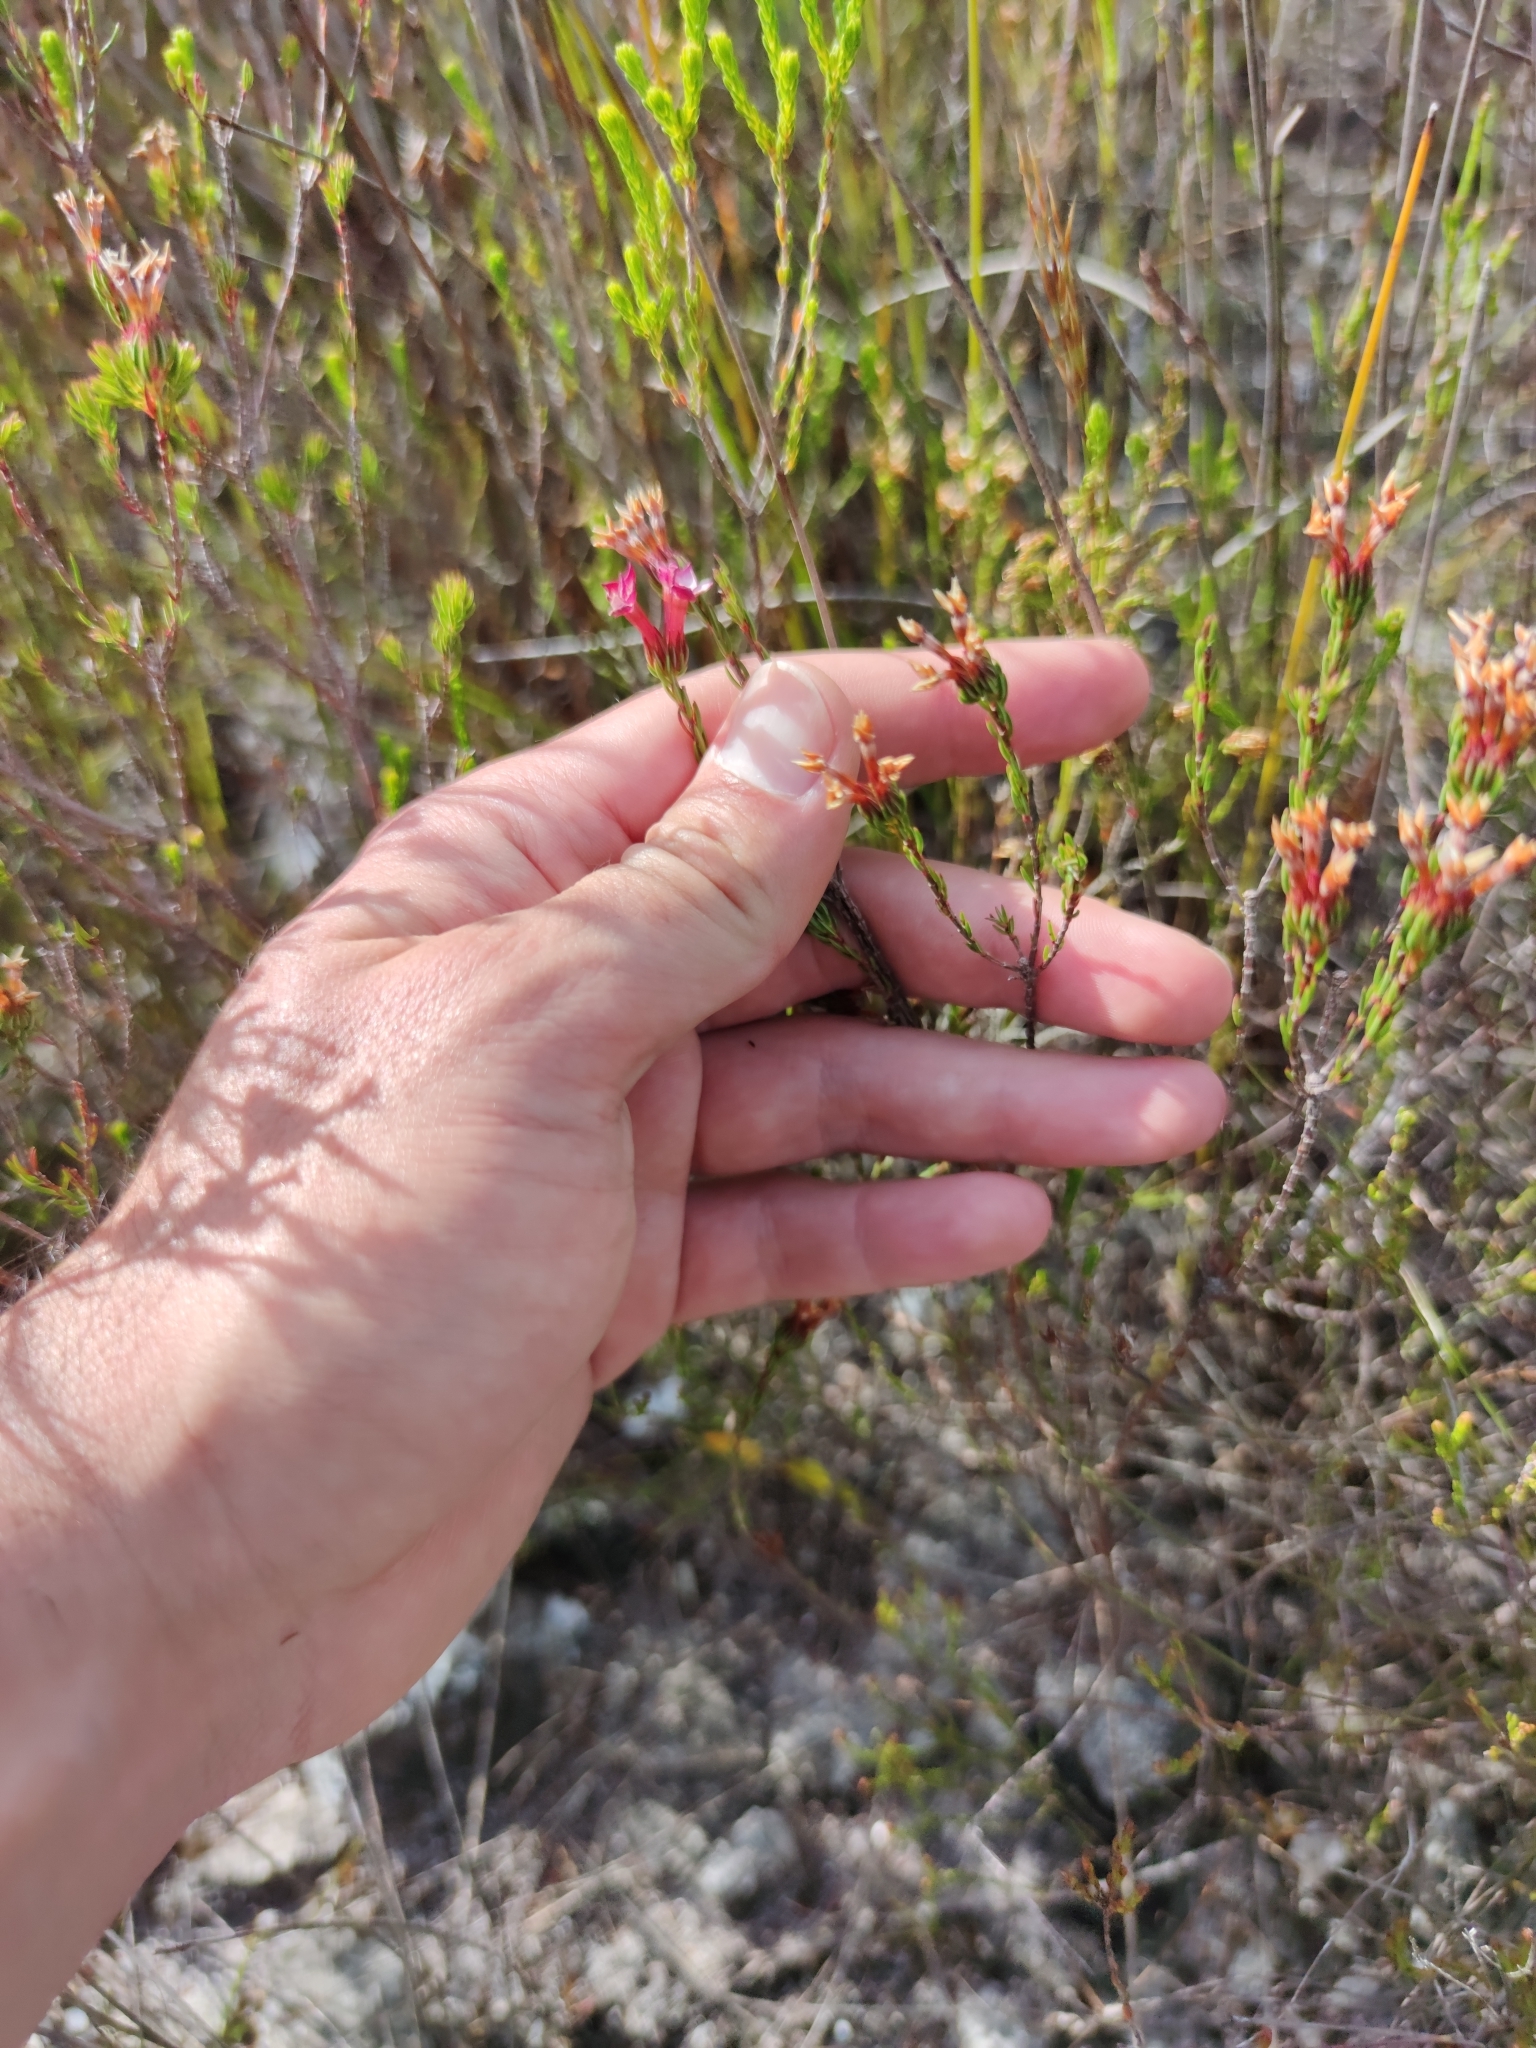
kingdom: Plantae
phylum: Tracheophyta
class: Magnoliopsida
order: Ericales
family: Ericaceae
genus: Erica
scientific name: Erica fastigiata
